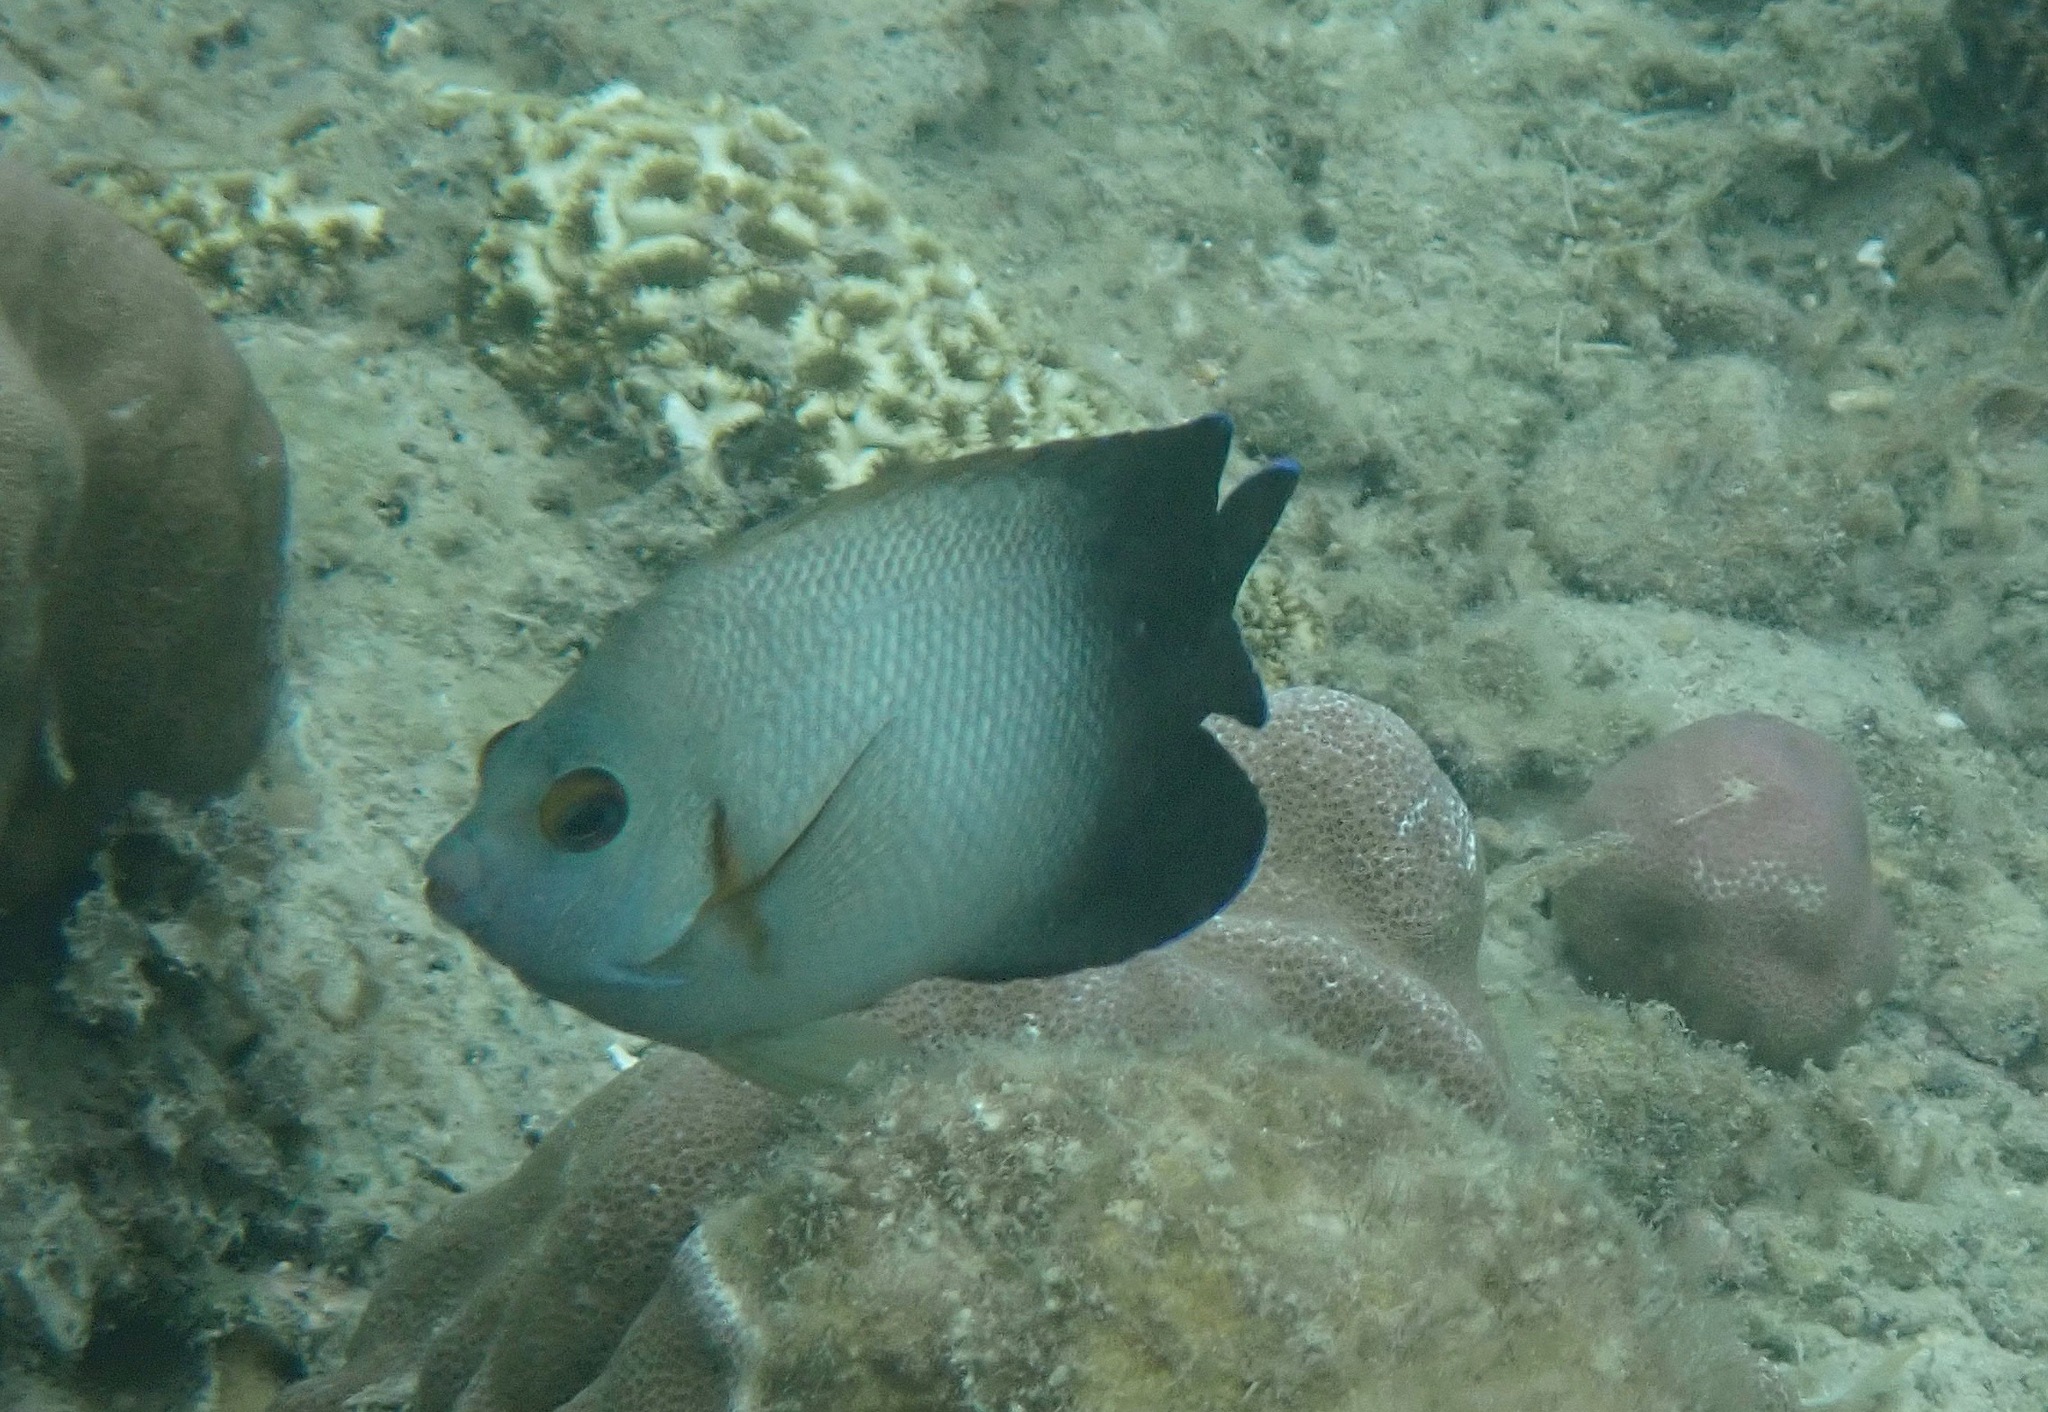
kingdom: Animalia
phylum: Chordata
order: Perciformes
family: Pomacanthidae
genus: Centropyge
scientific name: Centropyge vrolikii
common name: Pearlscale angelfish
